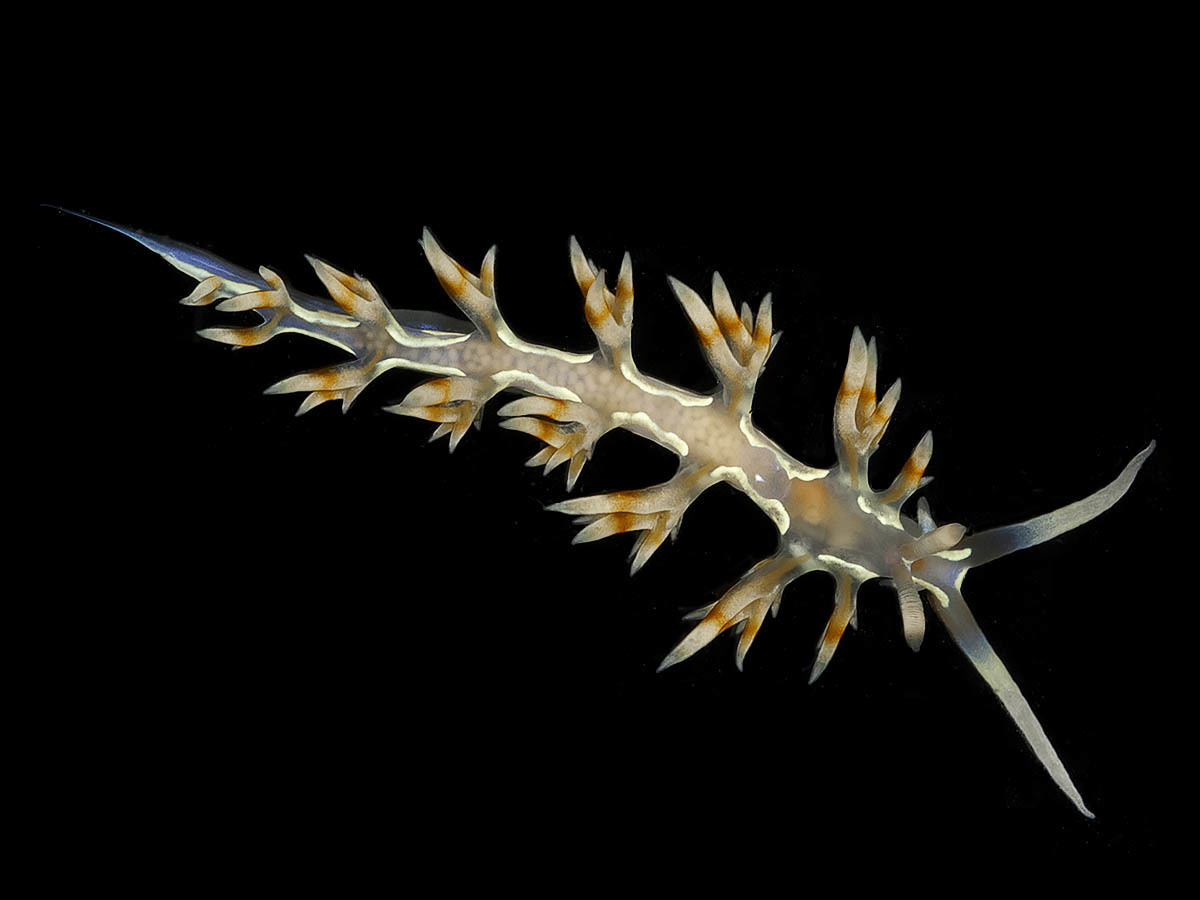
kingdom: Animalia
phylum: Mollusca
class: Gastropoda
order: Nudibranchia
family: Flabellinidae
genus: Flabellina
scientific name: Flabellina engeli
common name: Engel's flabellina
